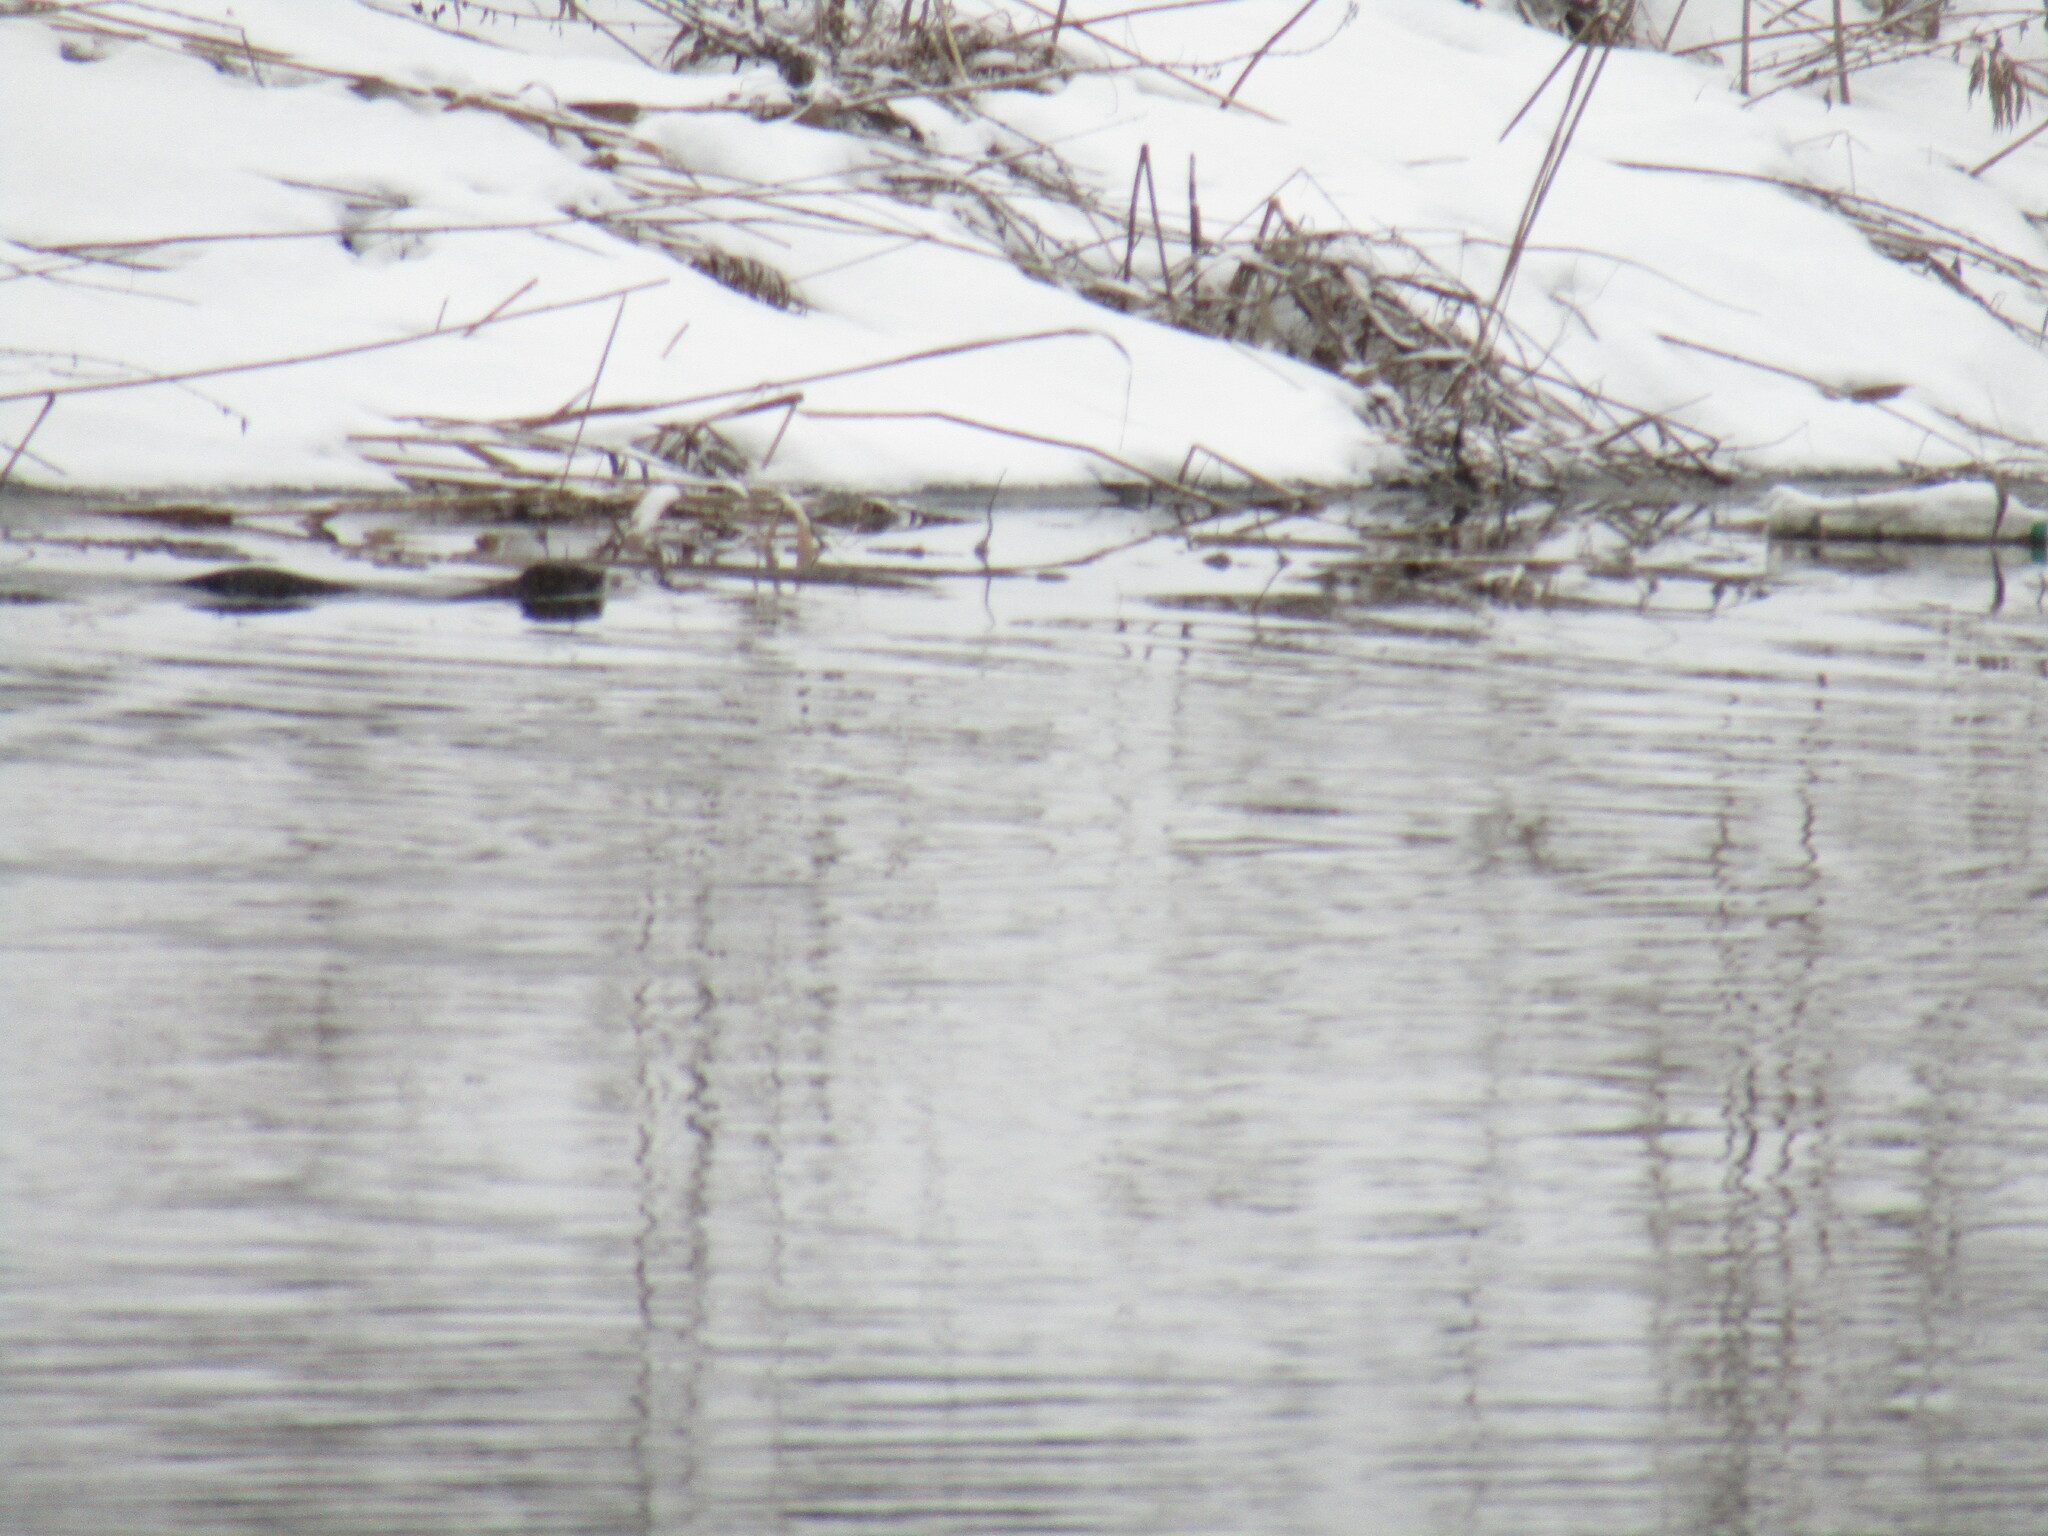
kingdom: Animalia
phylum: Chordata
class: Mammalia
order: Carnivora
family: Mustelidae
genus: Mustela
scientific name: Mustela
